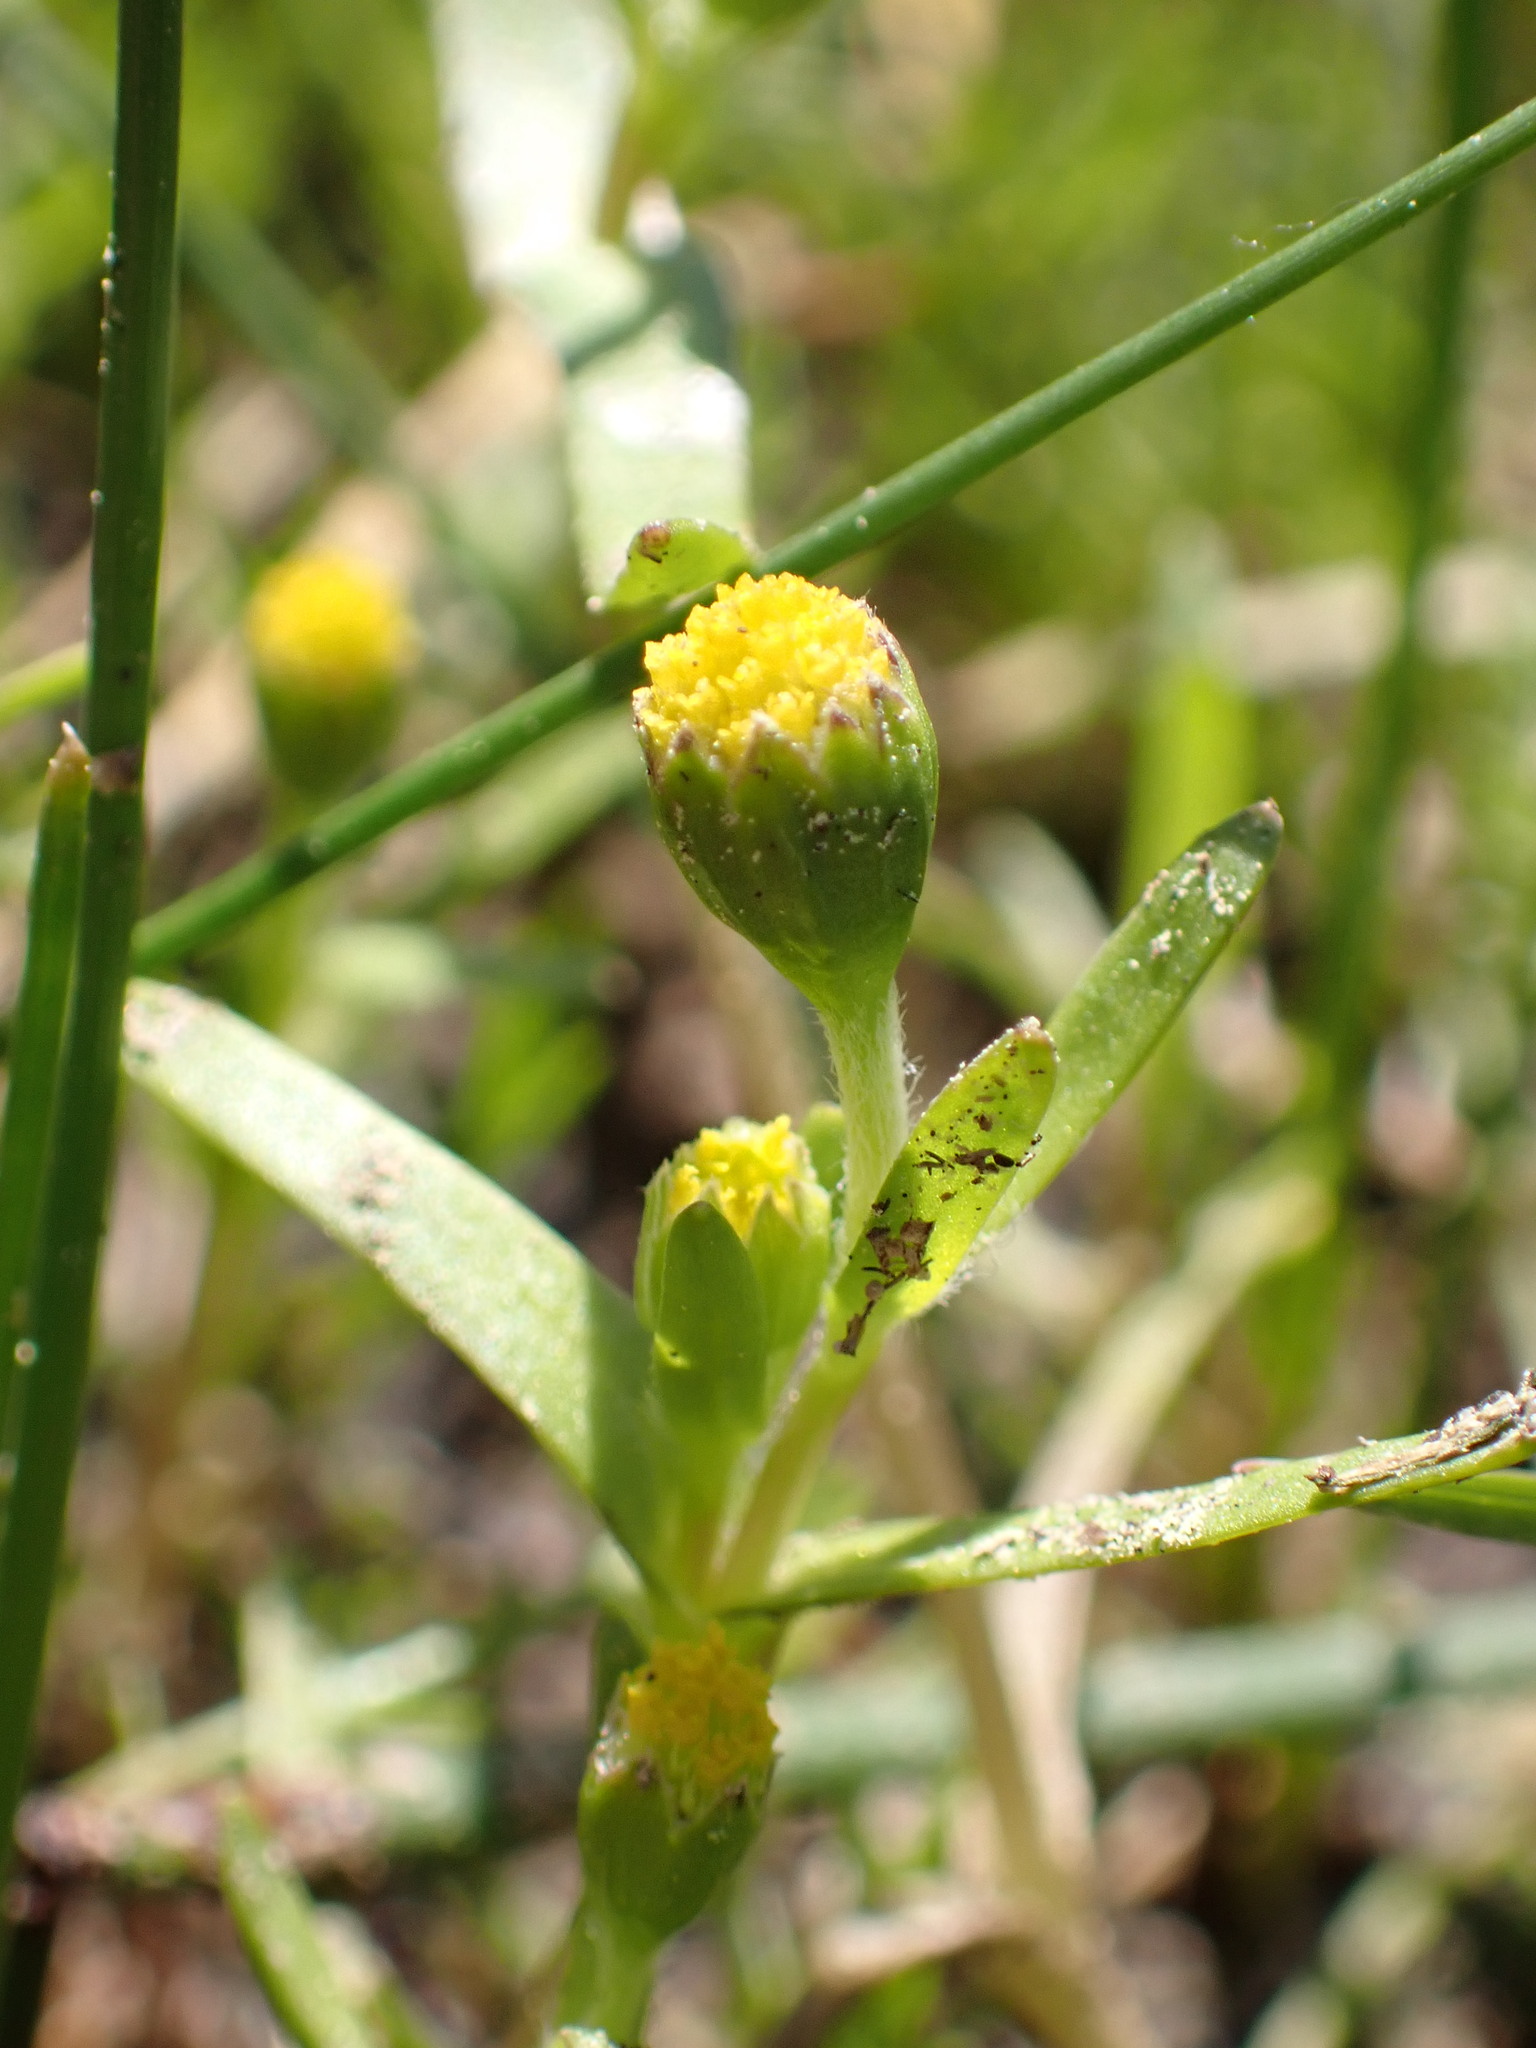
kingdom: Plantae
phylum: Tracheophyta
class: Magnoliopsida
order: Asterales
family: Asteraceae
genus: Lasthenia
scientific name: Lasthenia glaberrima
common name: Smooth goldfields
